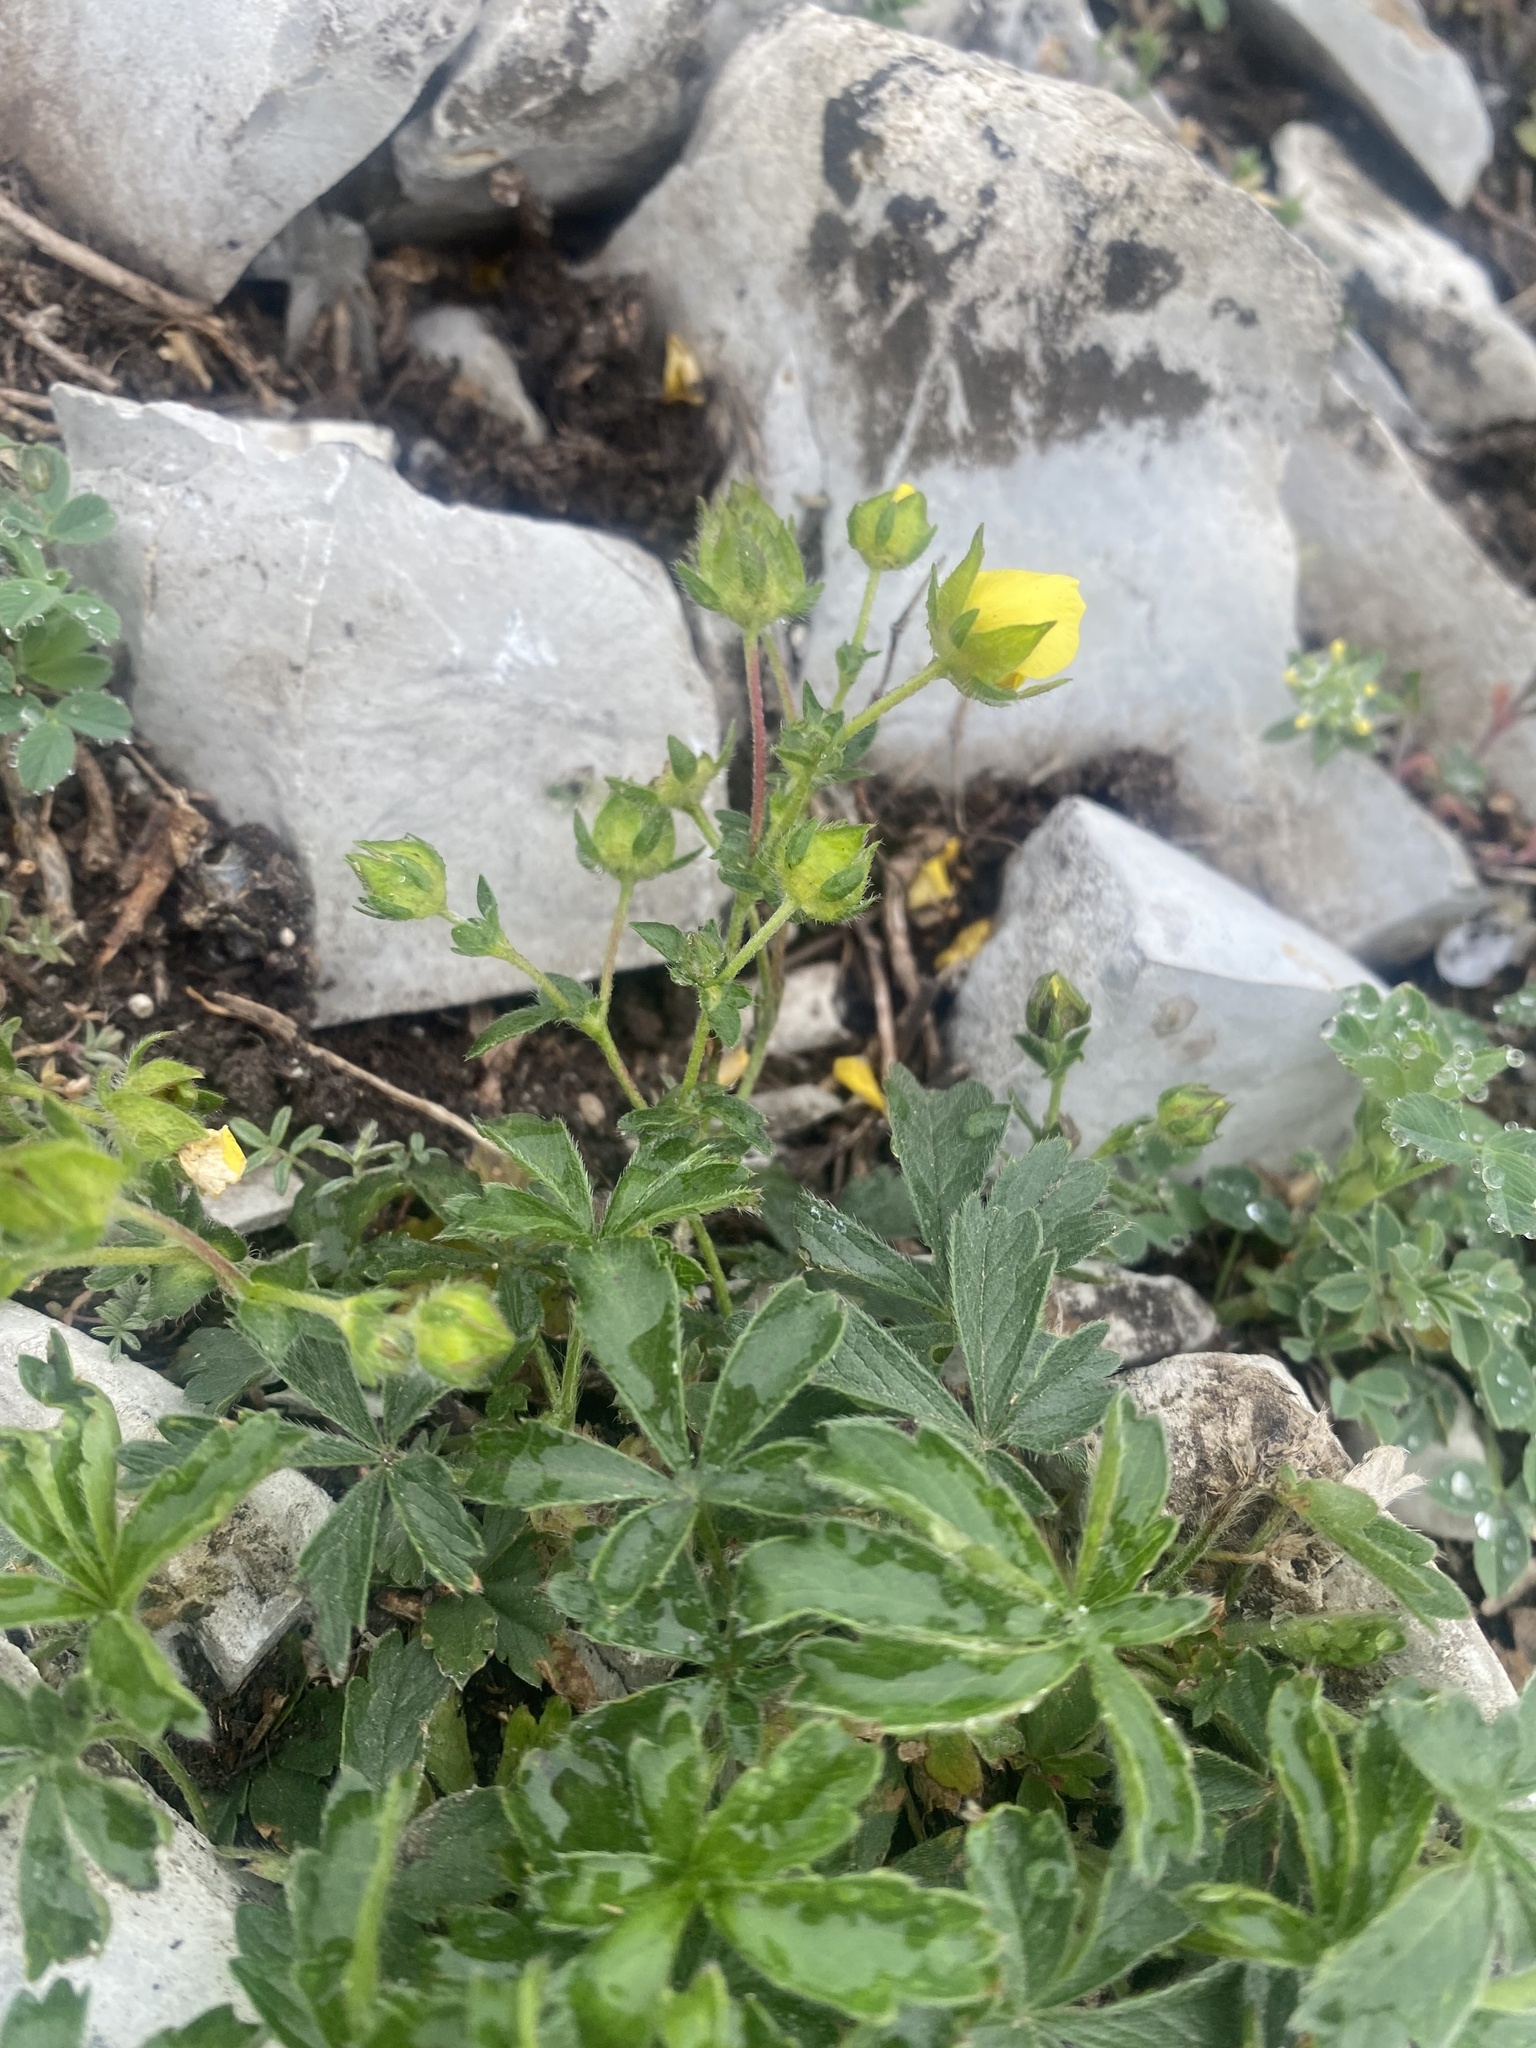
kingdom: Plantae
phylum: Tracheophyta
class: Magnoliopsida
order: Rosales
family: Rosaceae
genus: Potentilla
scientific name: Potentilla sphenophylla
